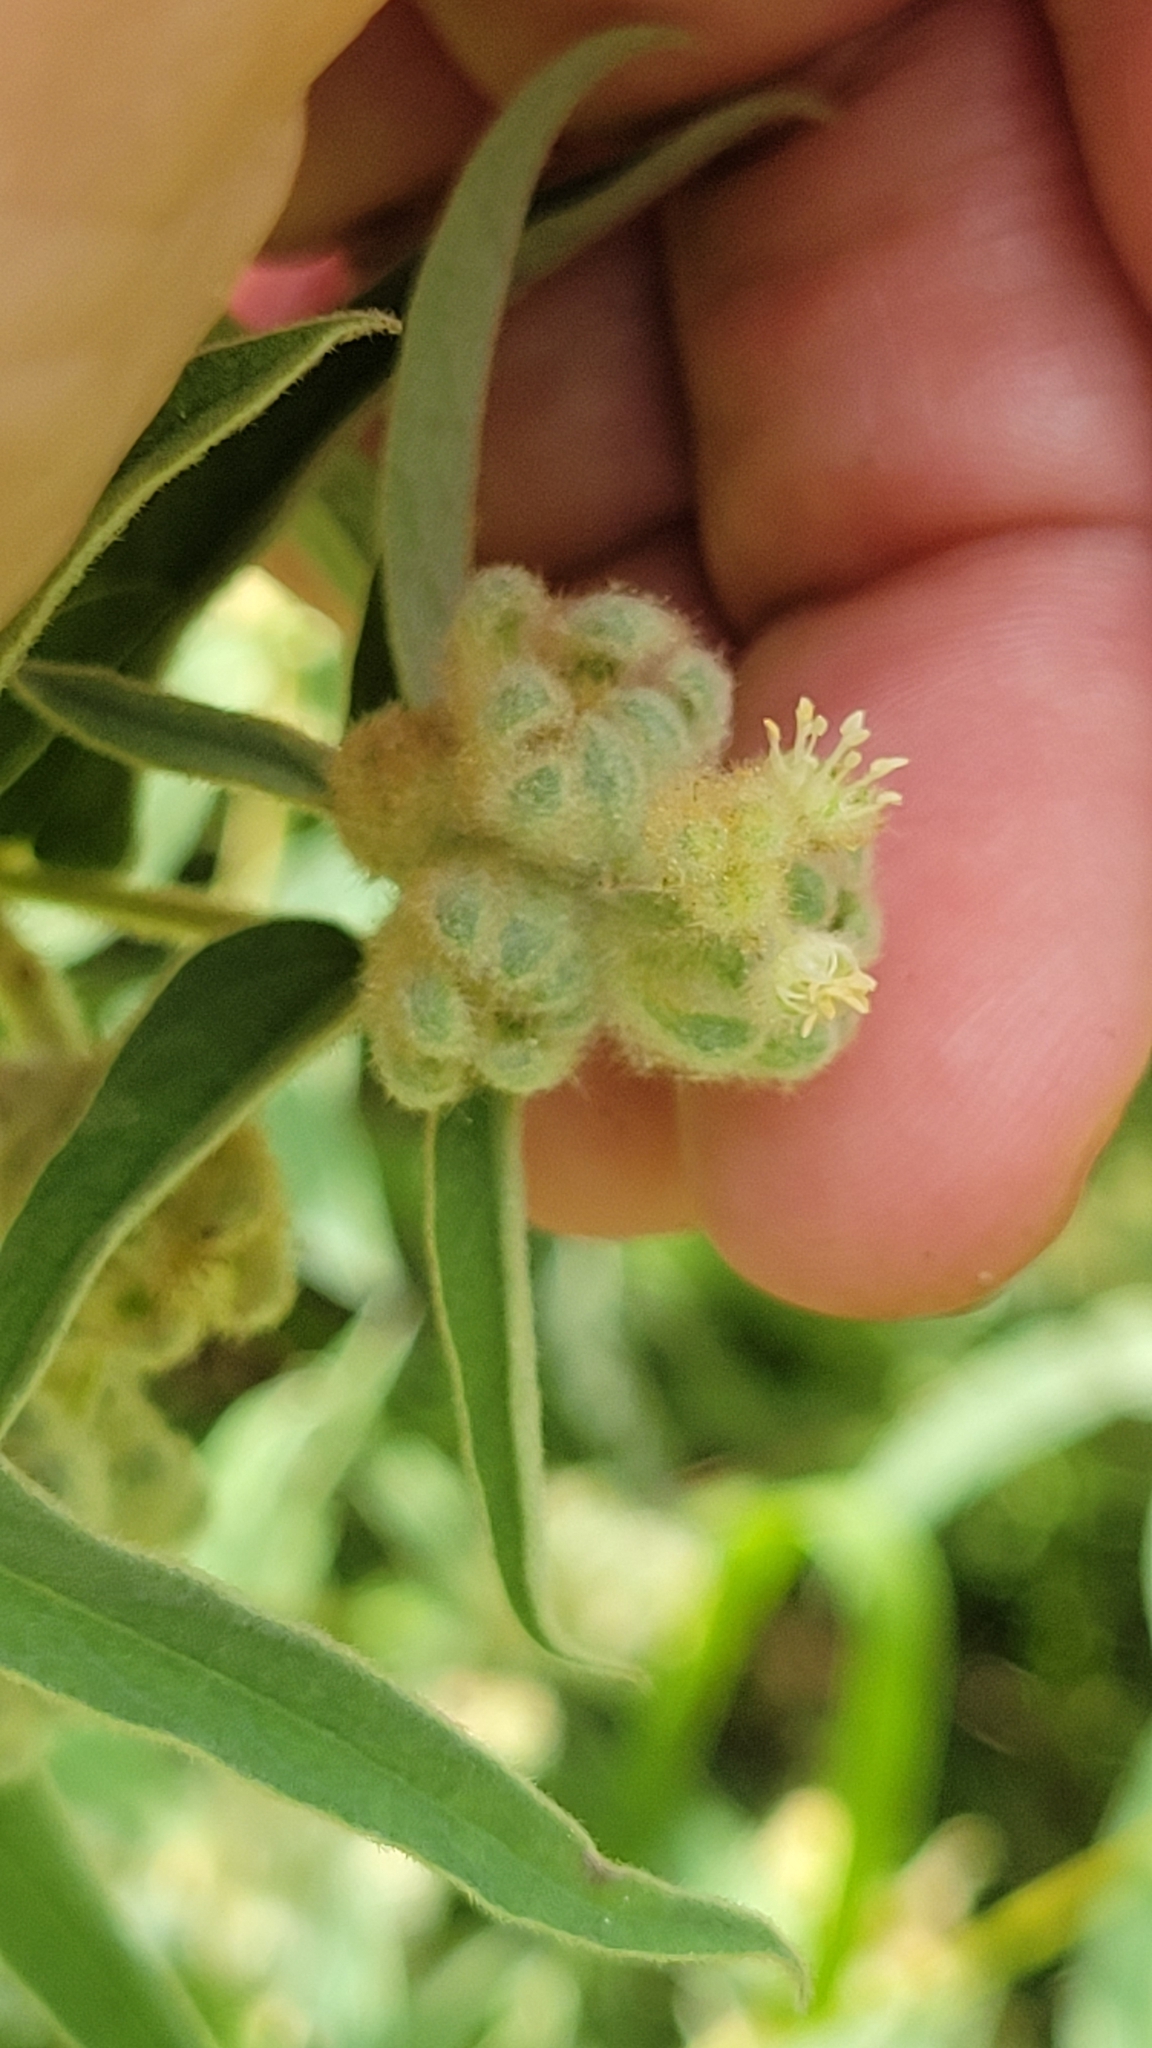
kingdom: Plantae
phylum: Tracheophyta
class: Magnoliopsida
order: Malpighiales
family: Euphorbiaceae
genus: Croton
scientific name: Croton lindheimeri
